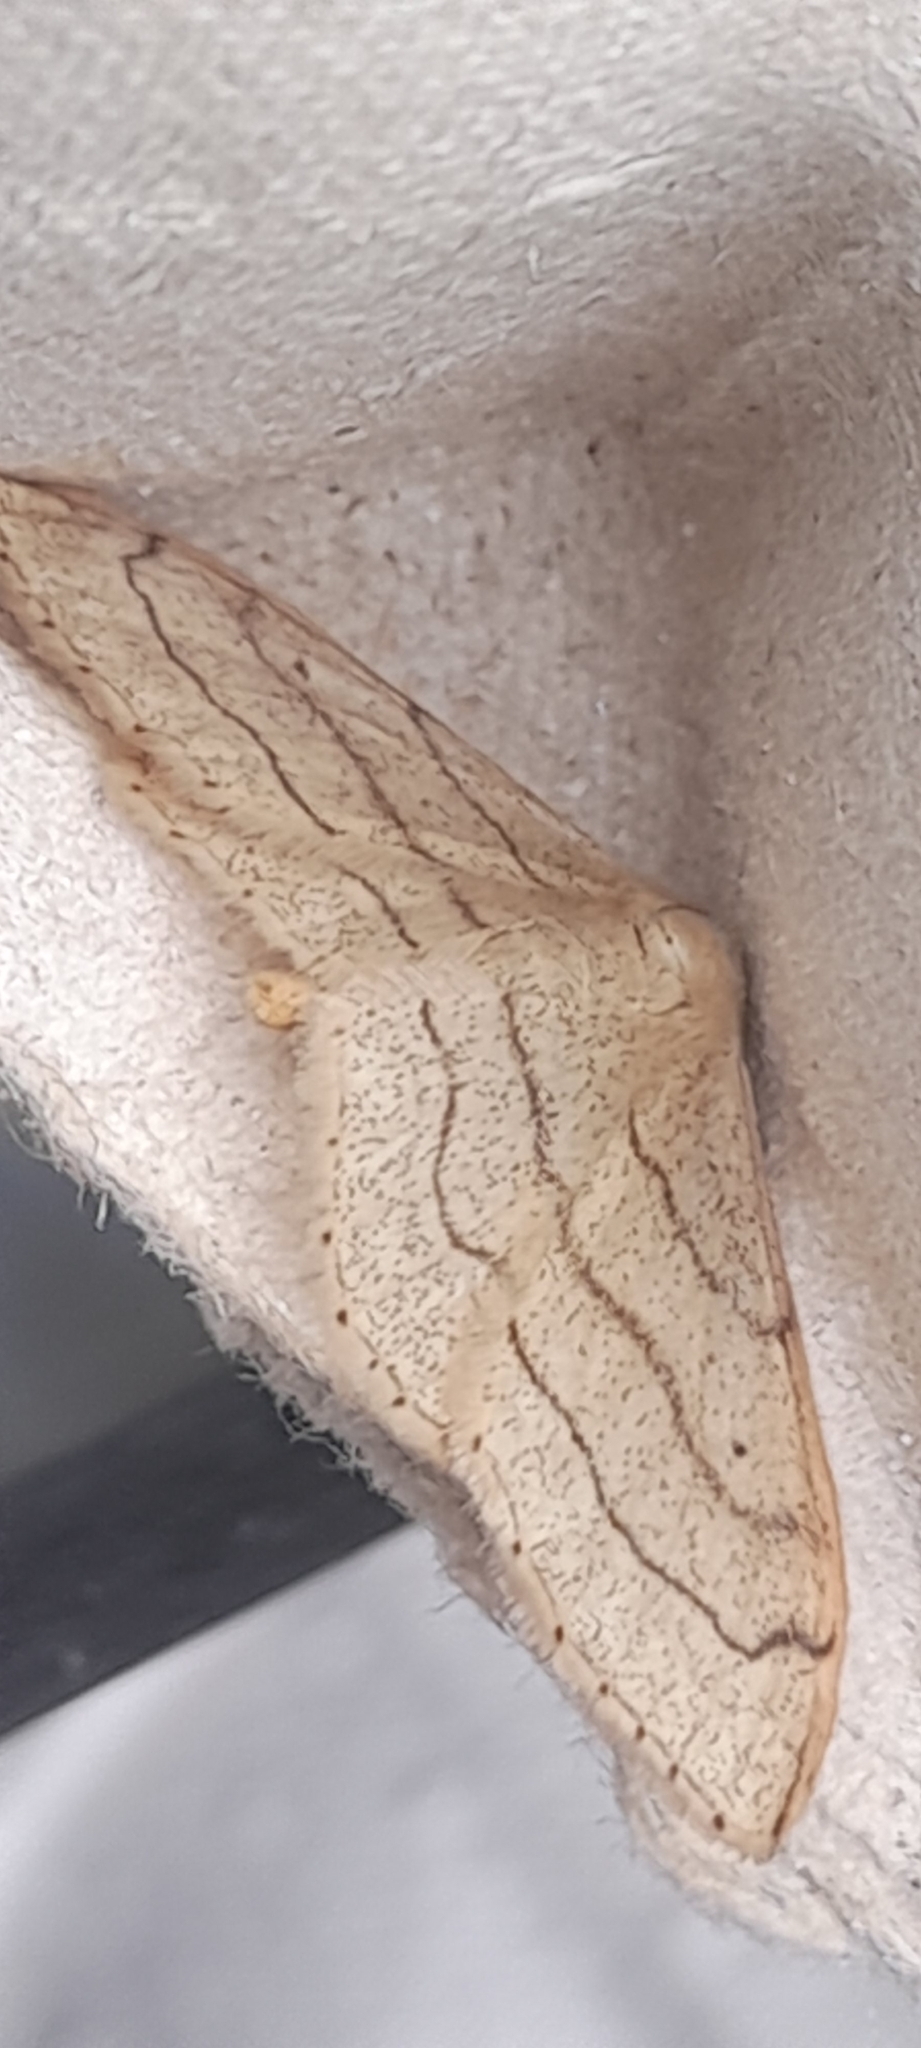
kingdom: Animalia
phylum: Arthropoda
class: Insecta
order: Lepidoptera
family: Geometridae
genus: Idaea
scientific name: Idaea aversata
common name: Riband wave
